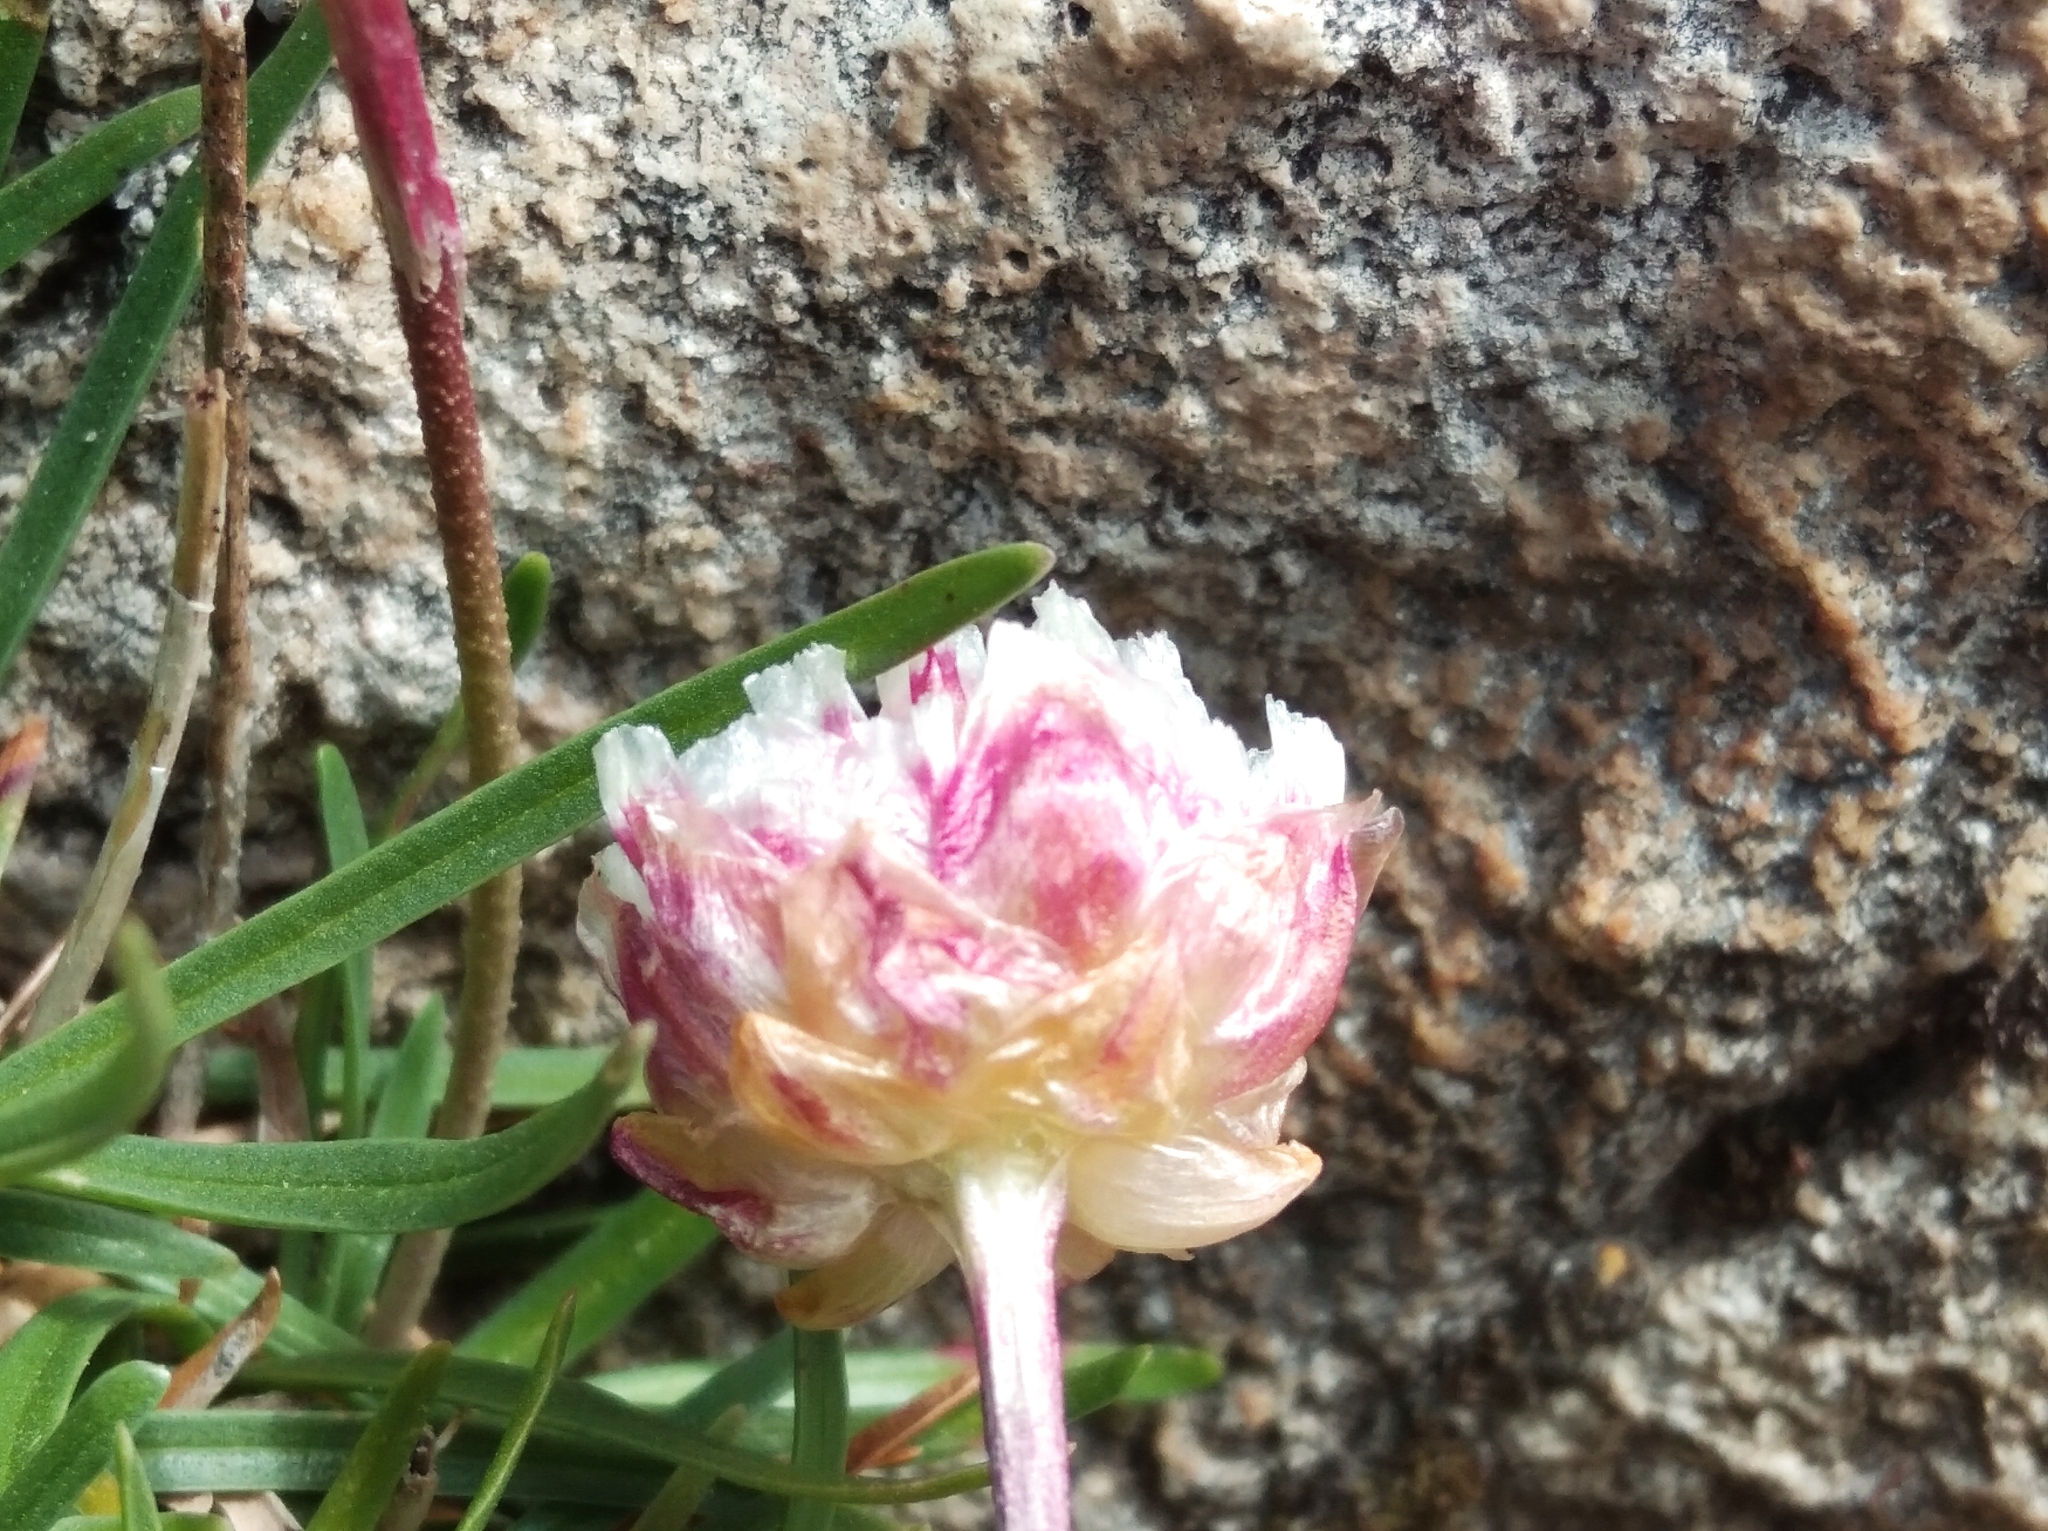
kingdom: Plantae
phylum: Tracheophyta
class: Magnoliopsida
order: Caryophyllales
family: Plumbaginaceae
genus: Armeria
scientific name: Armeria alpina
